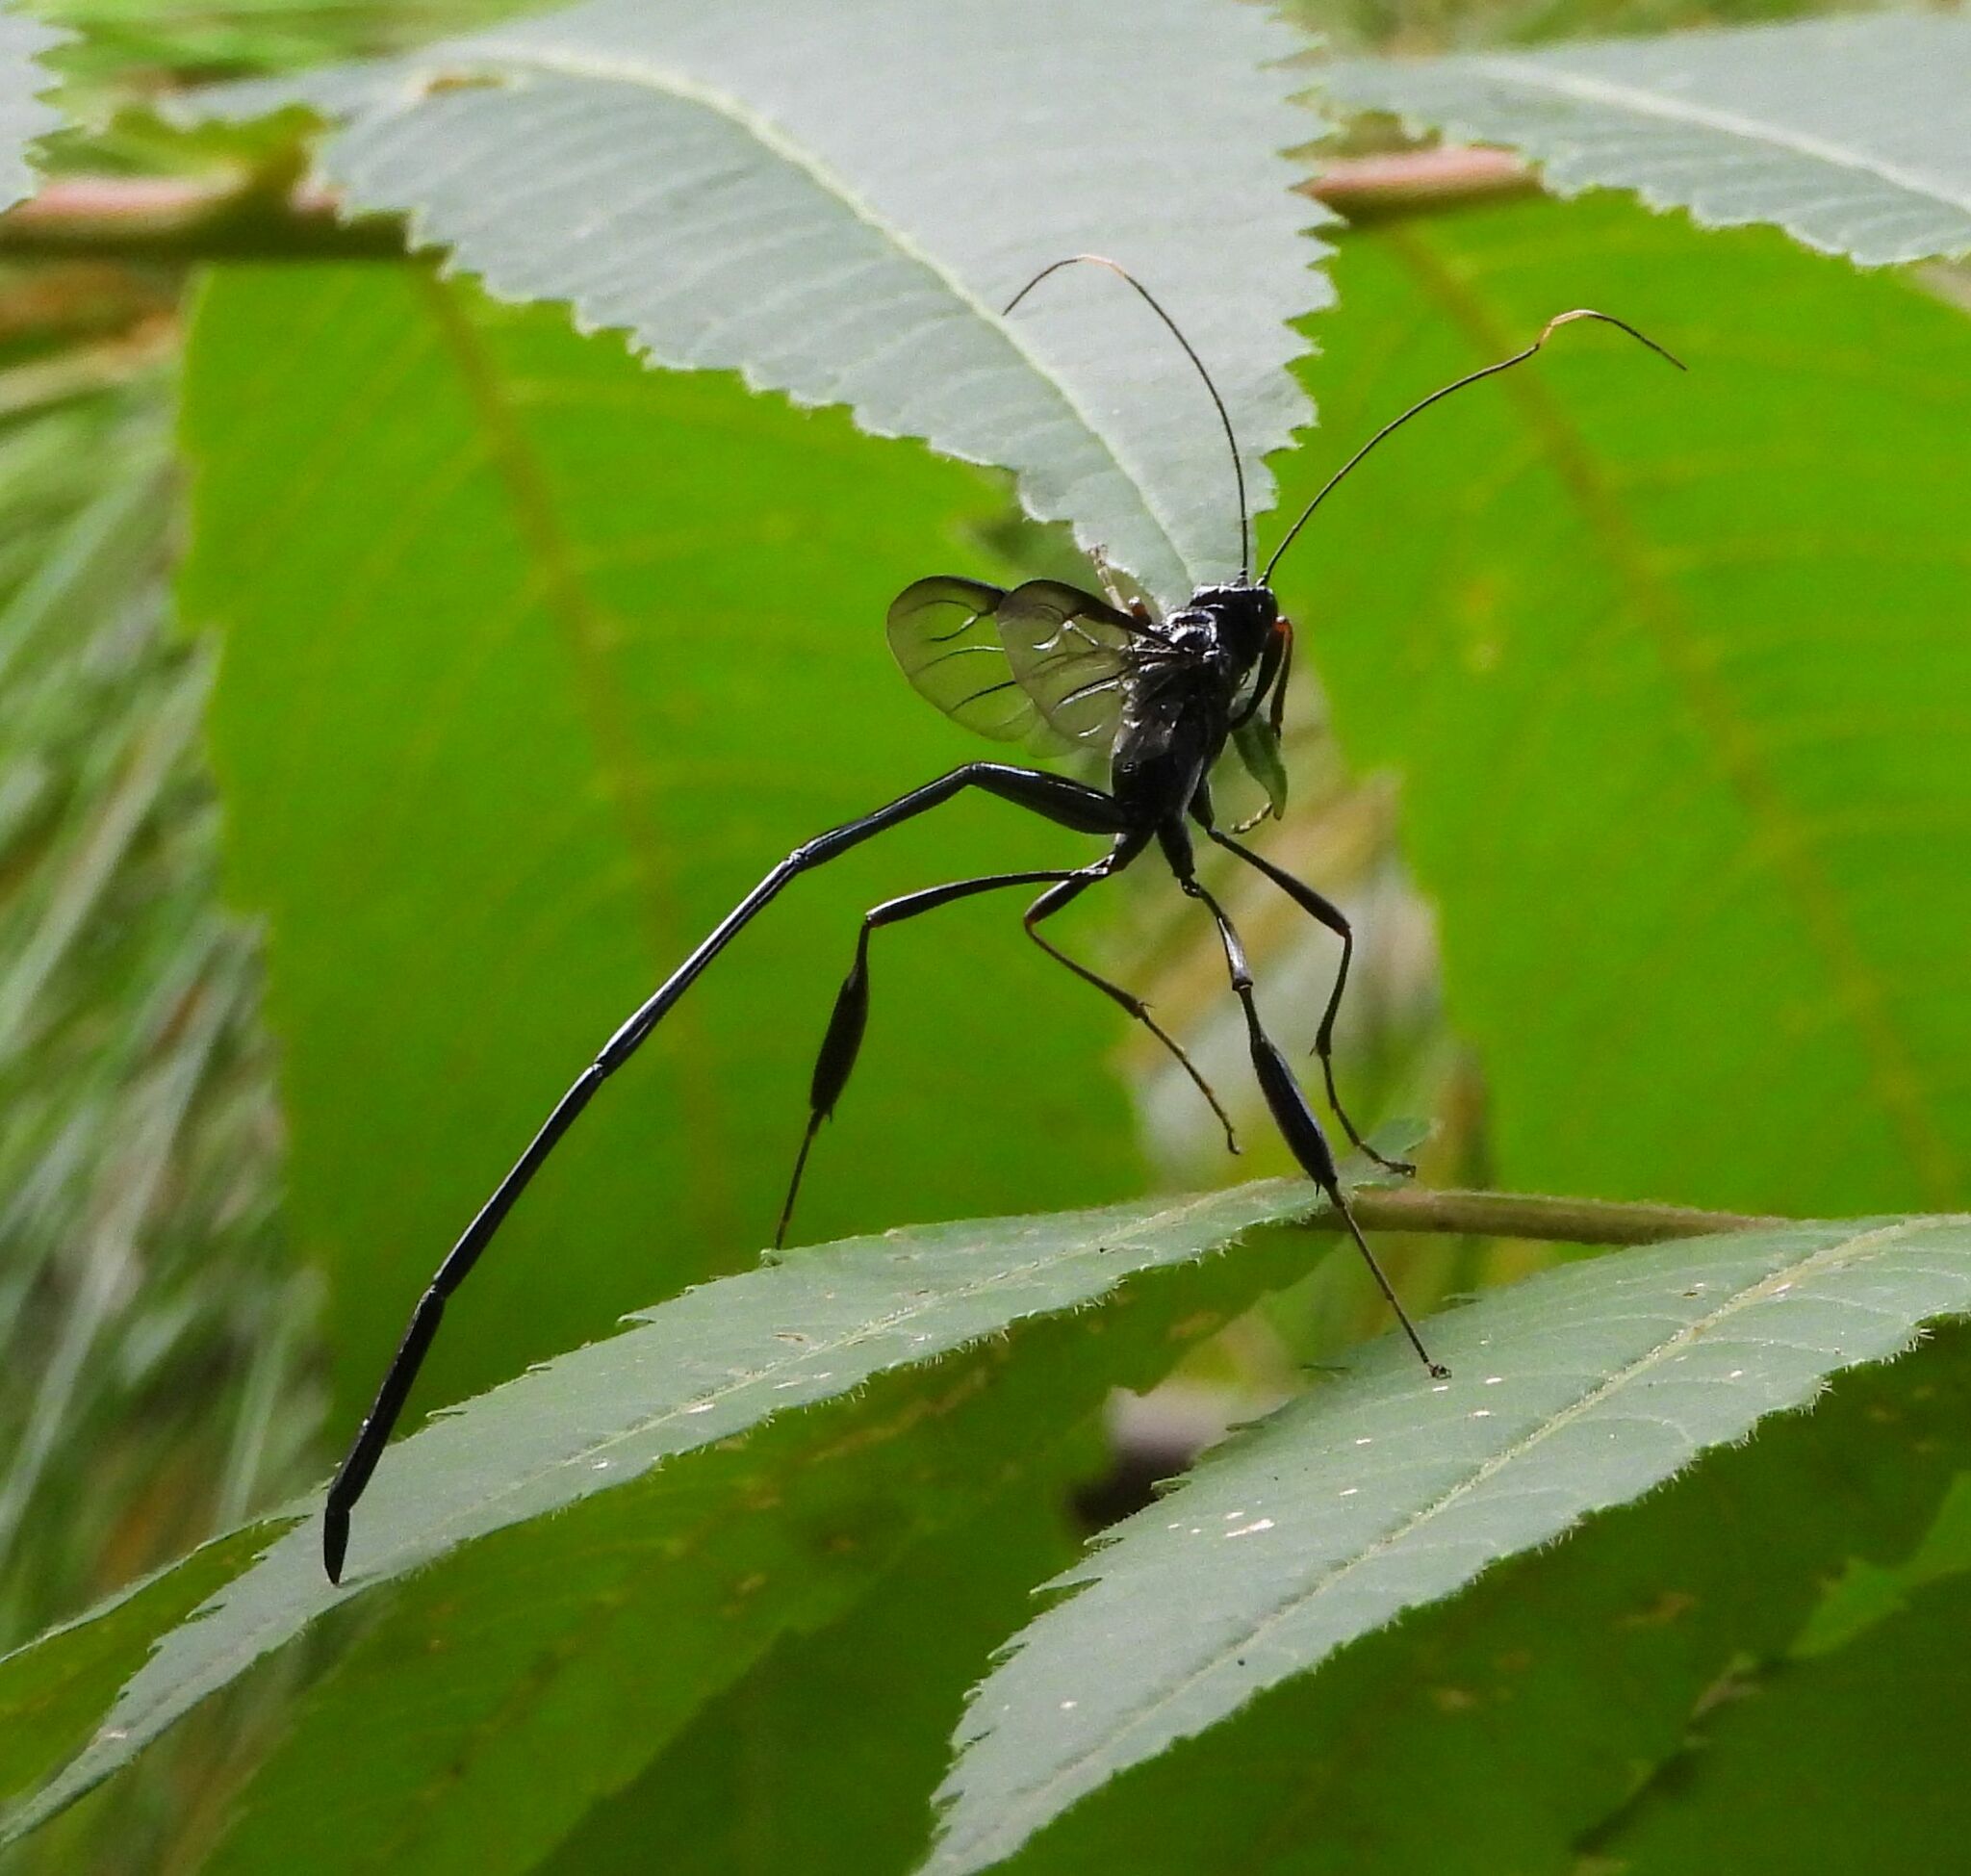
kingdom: Animalia
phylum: Arthropoda
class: Insecta
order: Hymenoptera
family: Pelecinidae
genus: Pelecinus
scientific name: Pelecinus polyturator
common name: American pelecinid wasp
